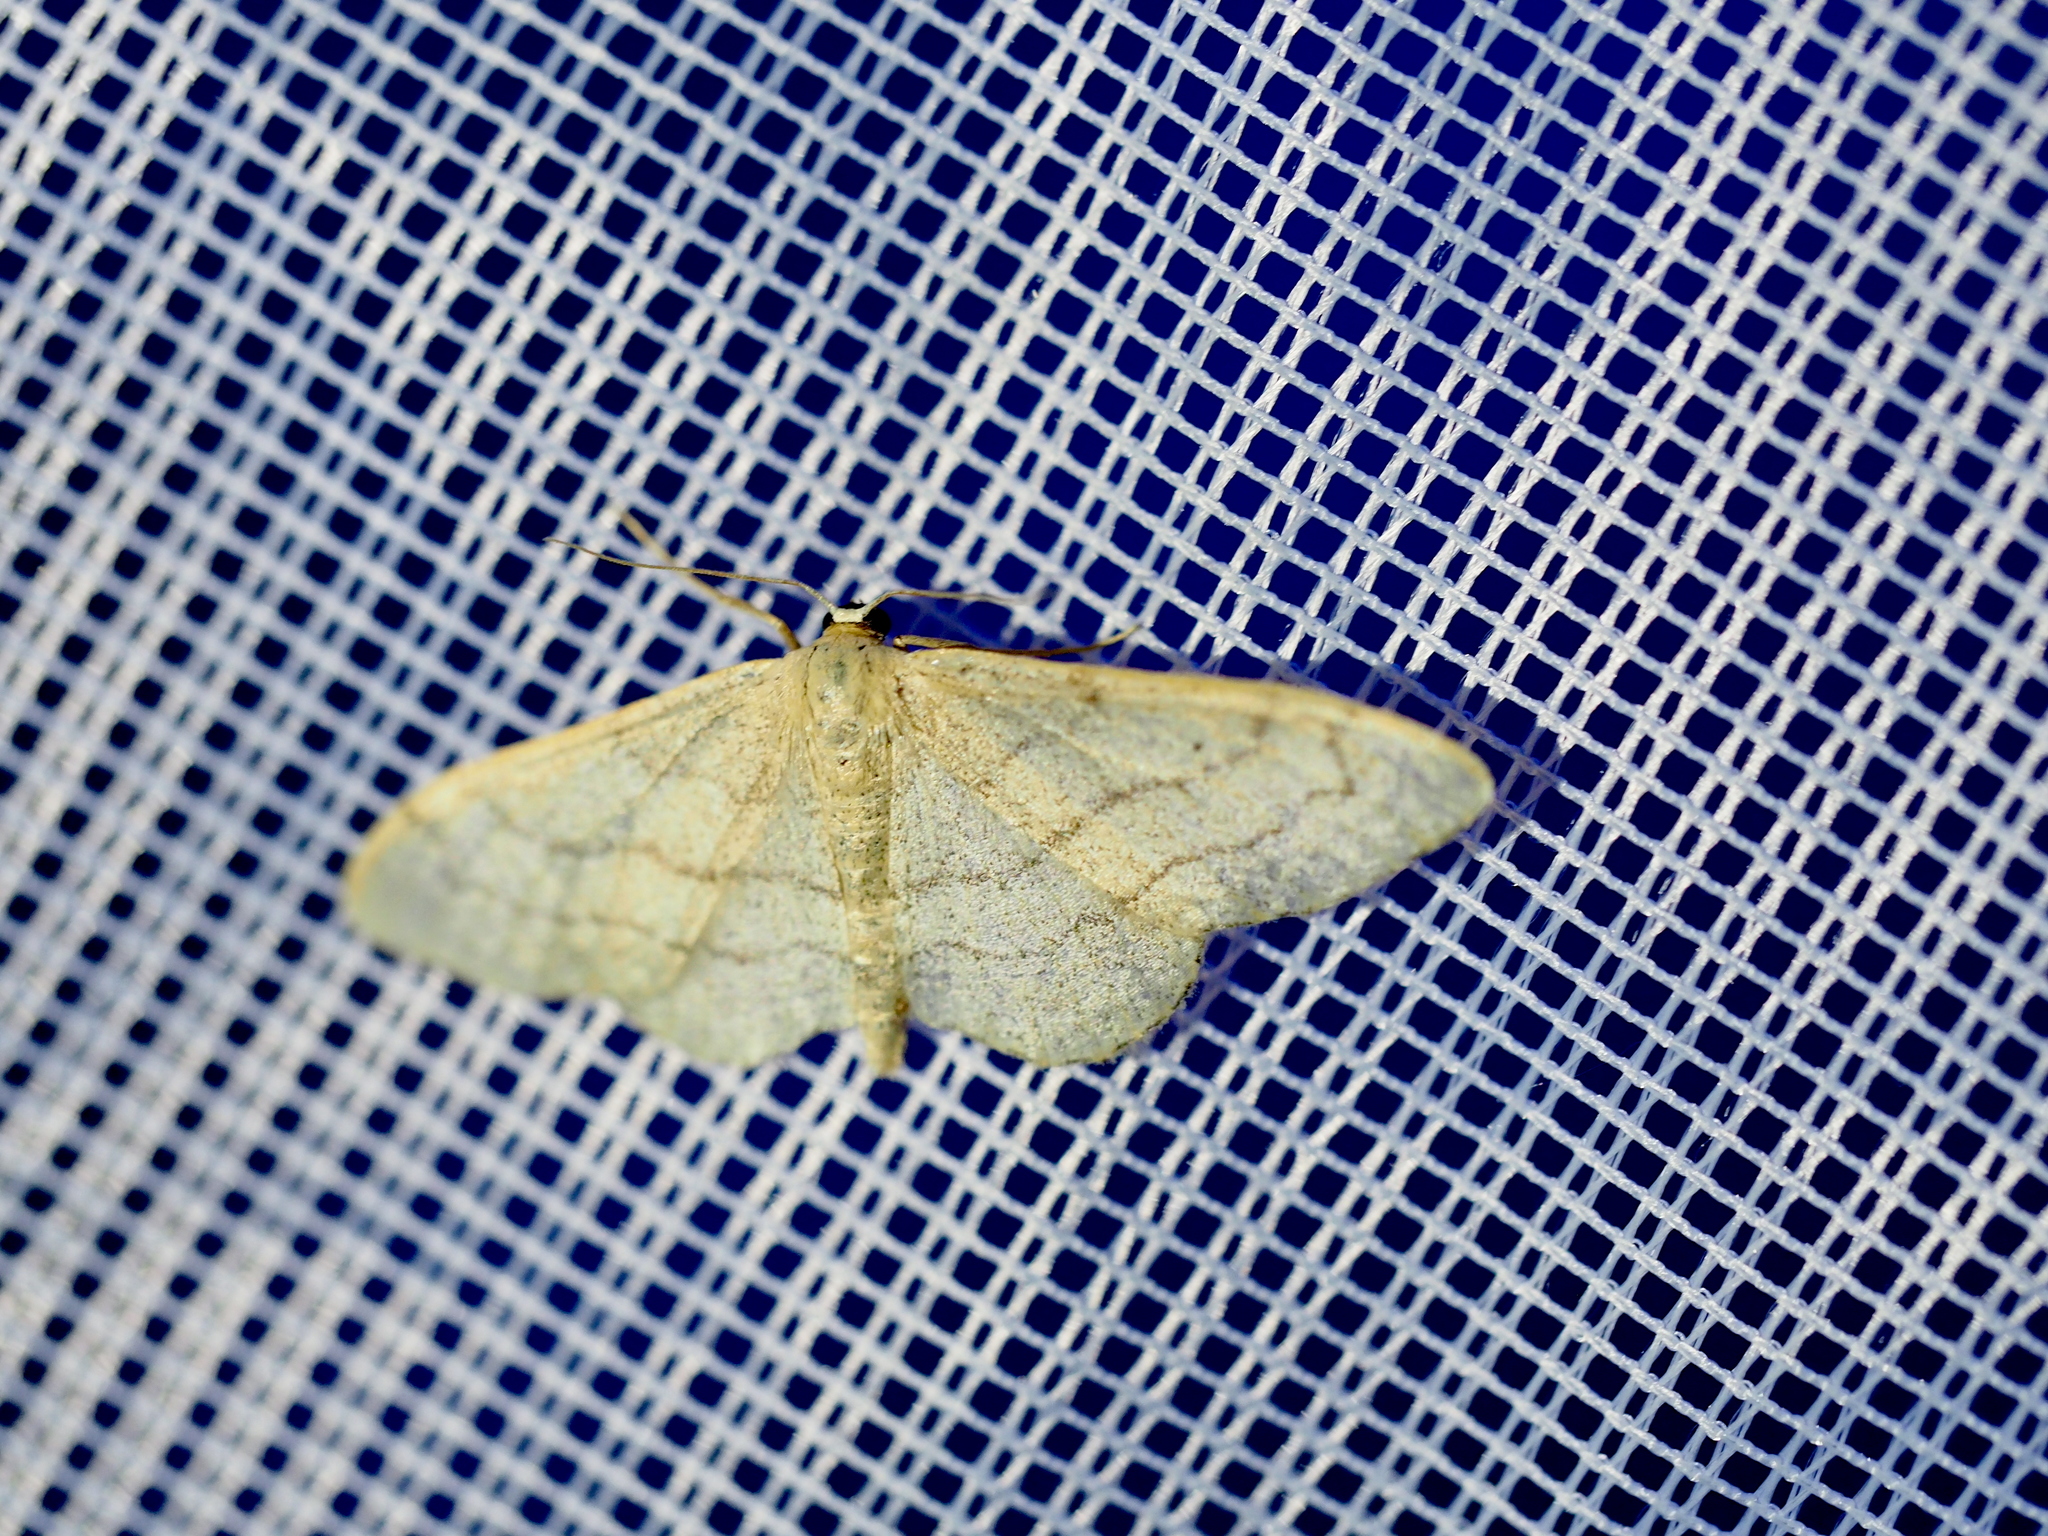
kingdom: Animalia
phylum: Arthropoda
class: Insecta
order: Lepidoptera
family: Geometridae
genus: Idaea
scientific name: Idaea aversata
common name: Riband wave
